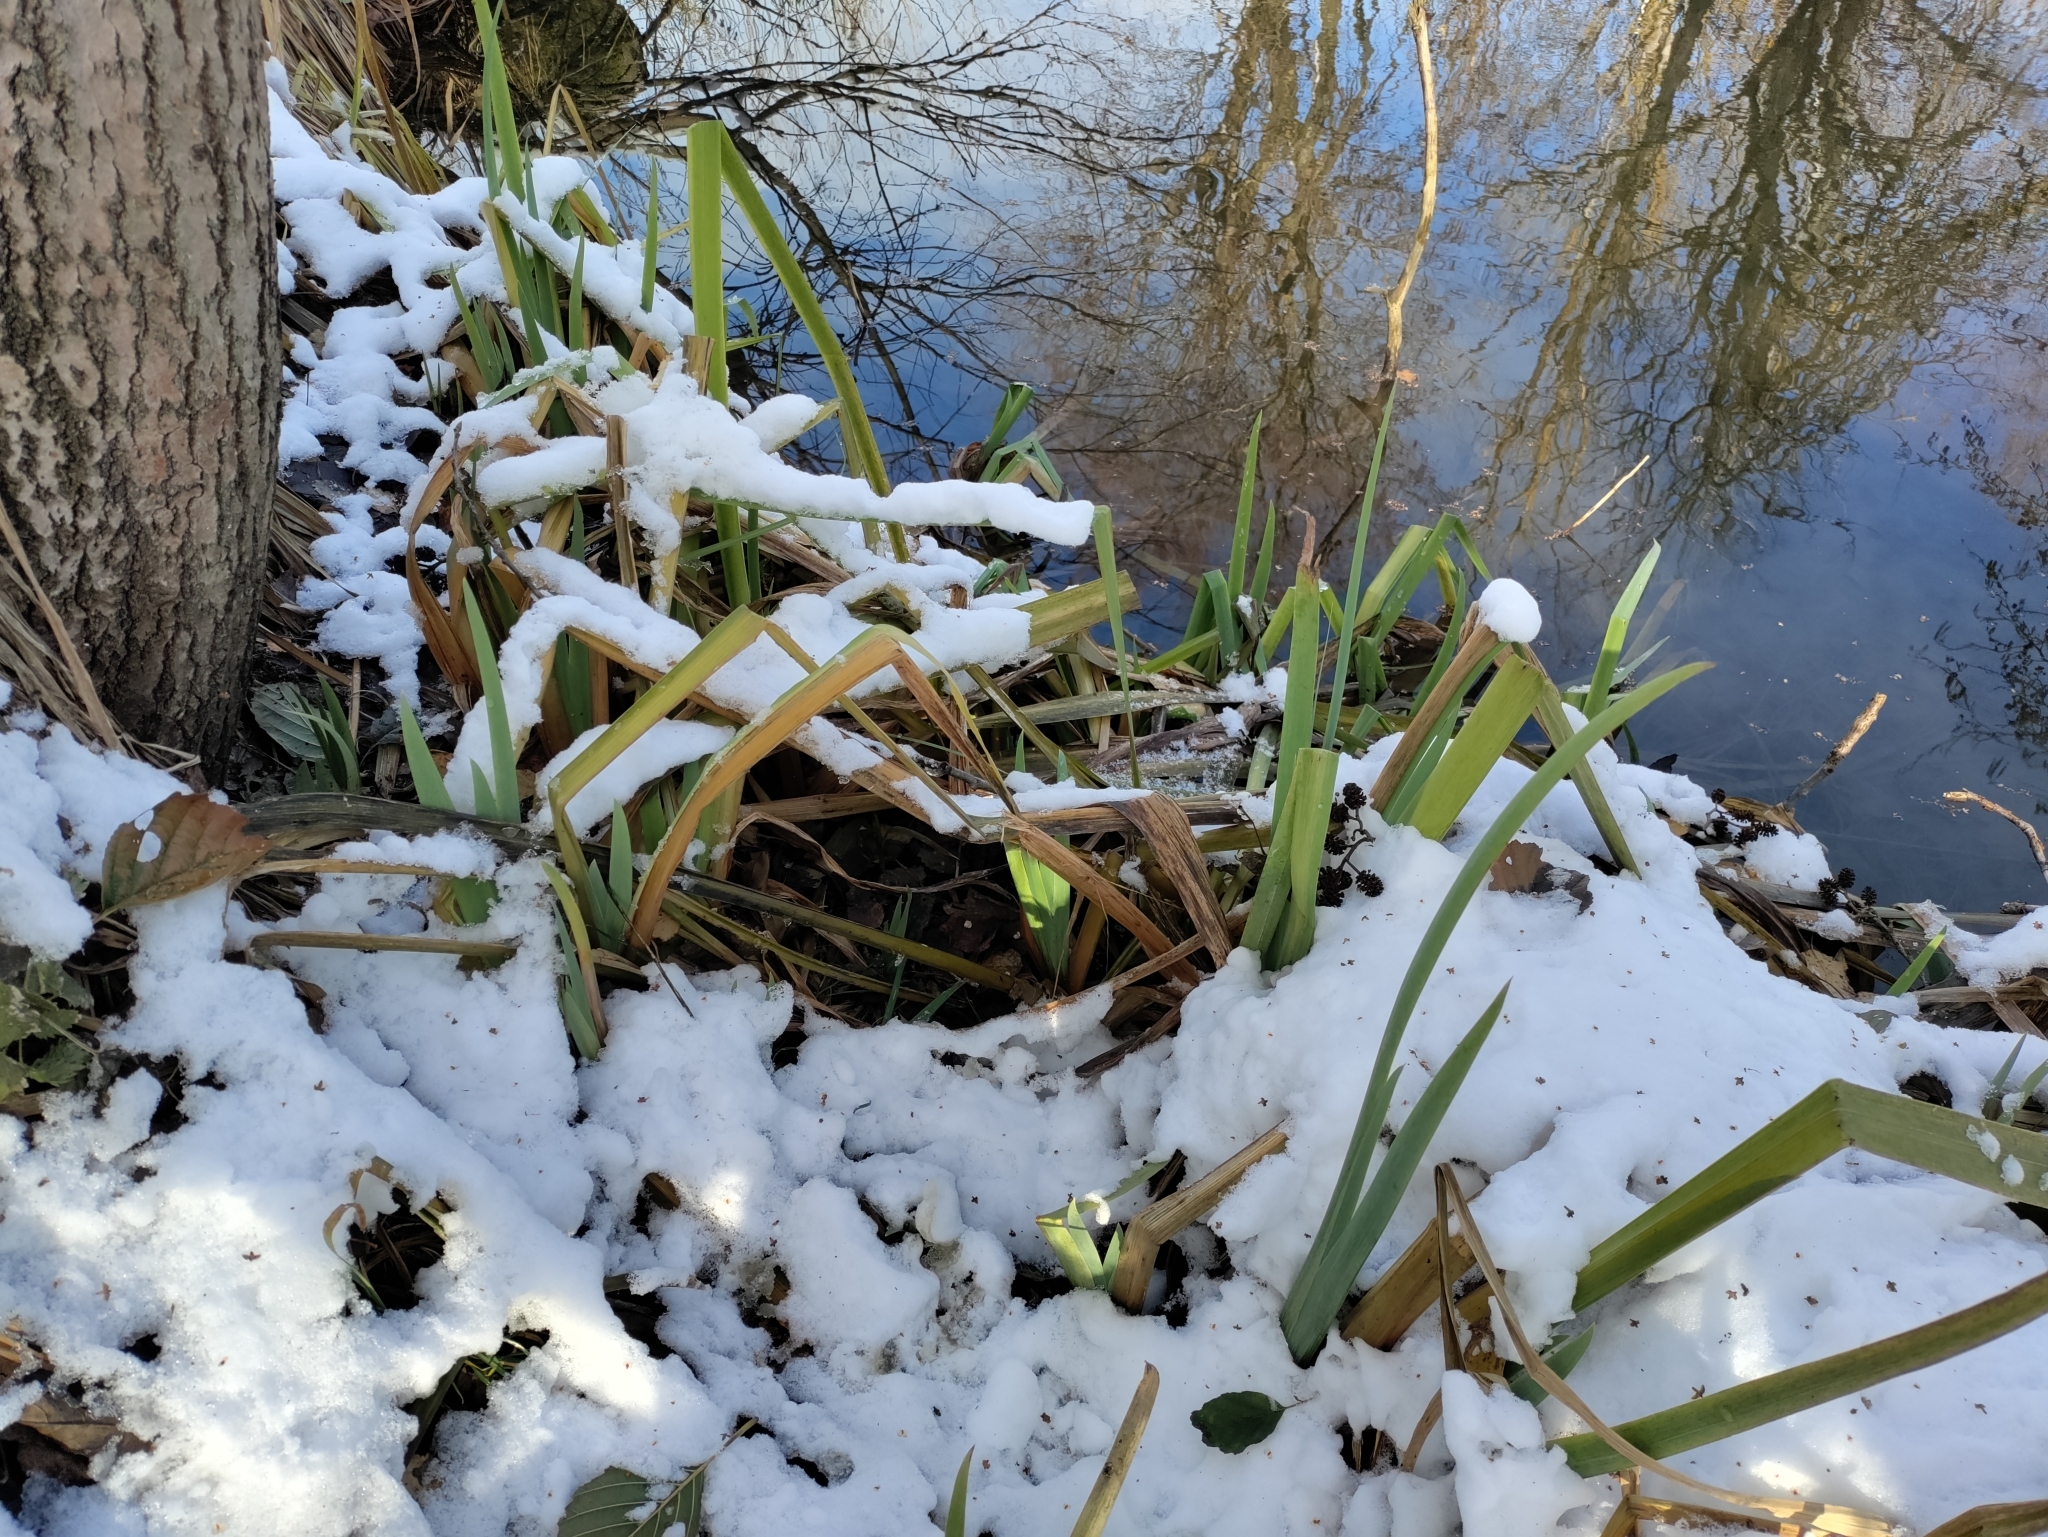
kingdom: Plantae
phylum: Tracheophyta
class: Liliopsida
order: Asparagales
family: Iridaceae
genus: Iris
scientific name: Iris pseudacorus
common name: Yellow flag
